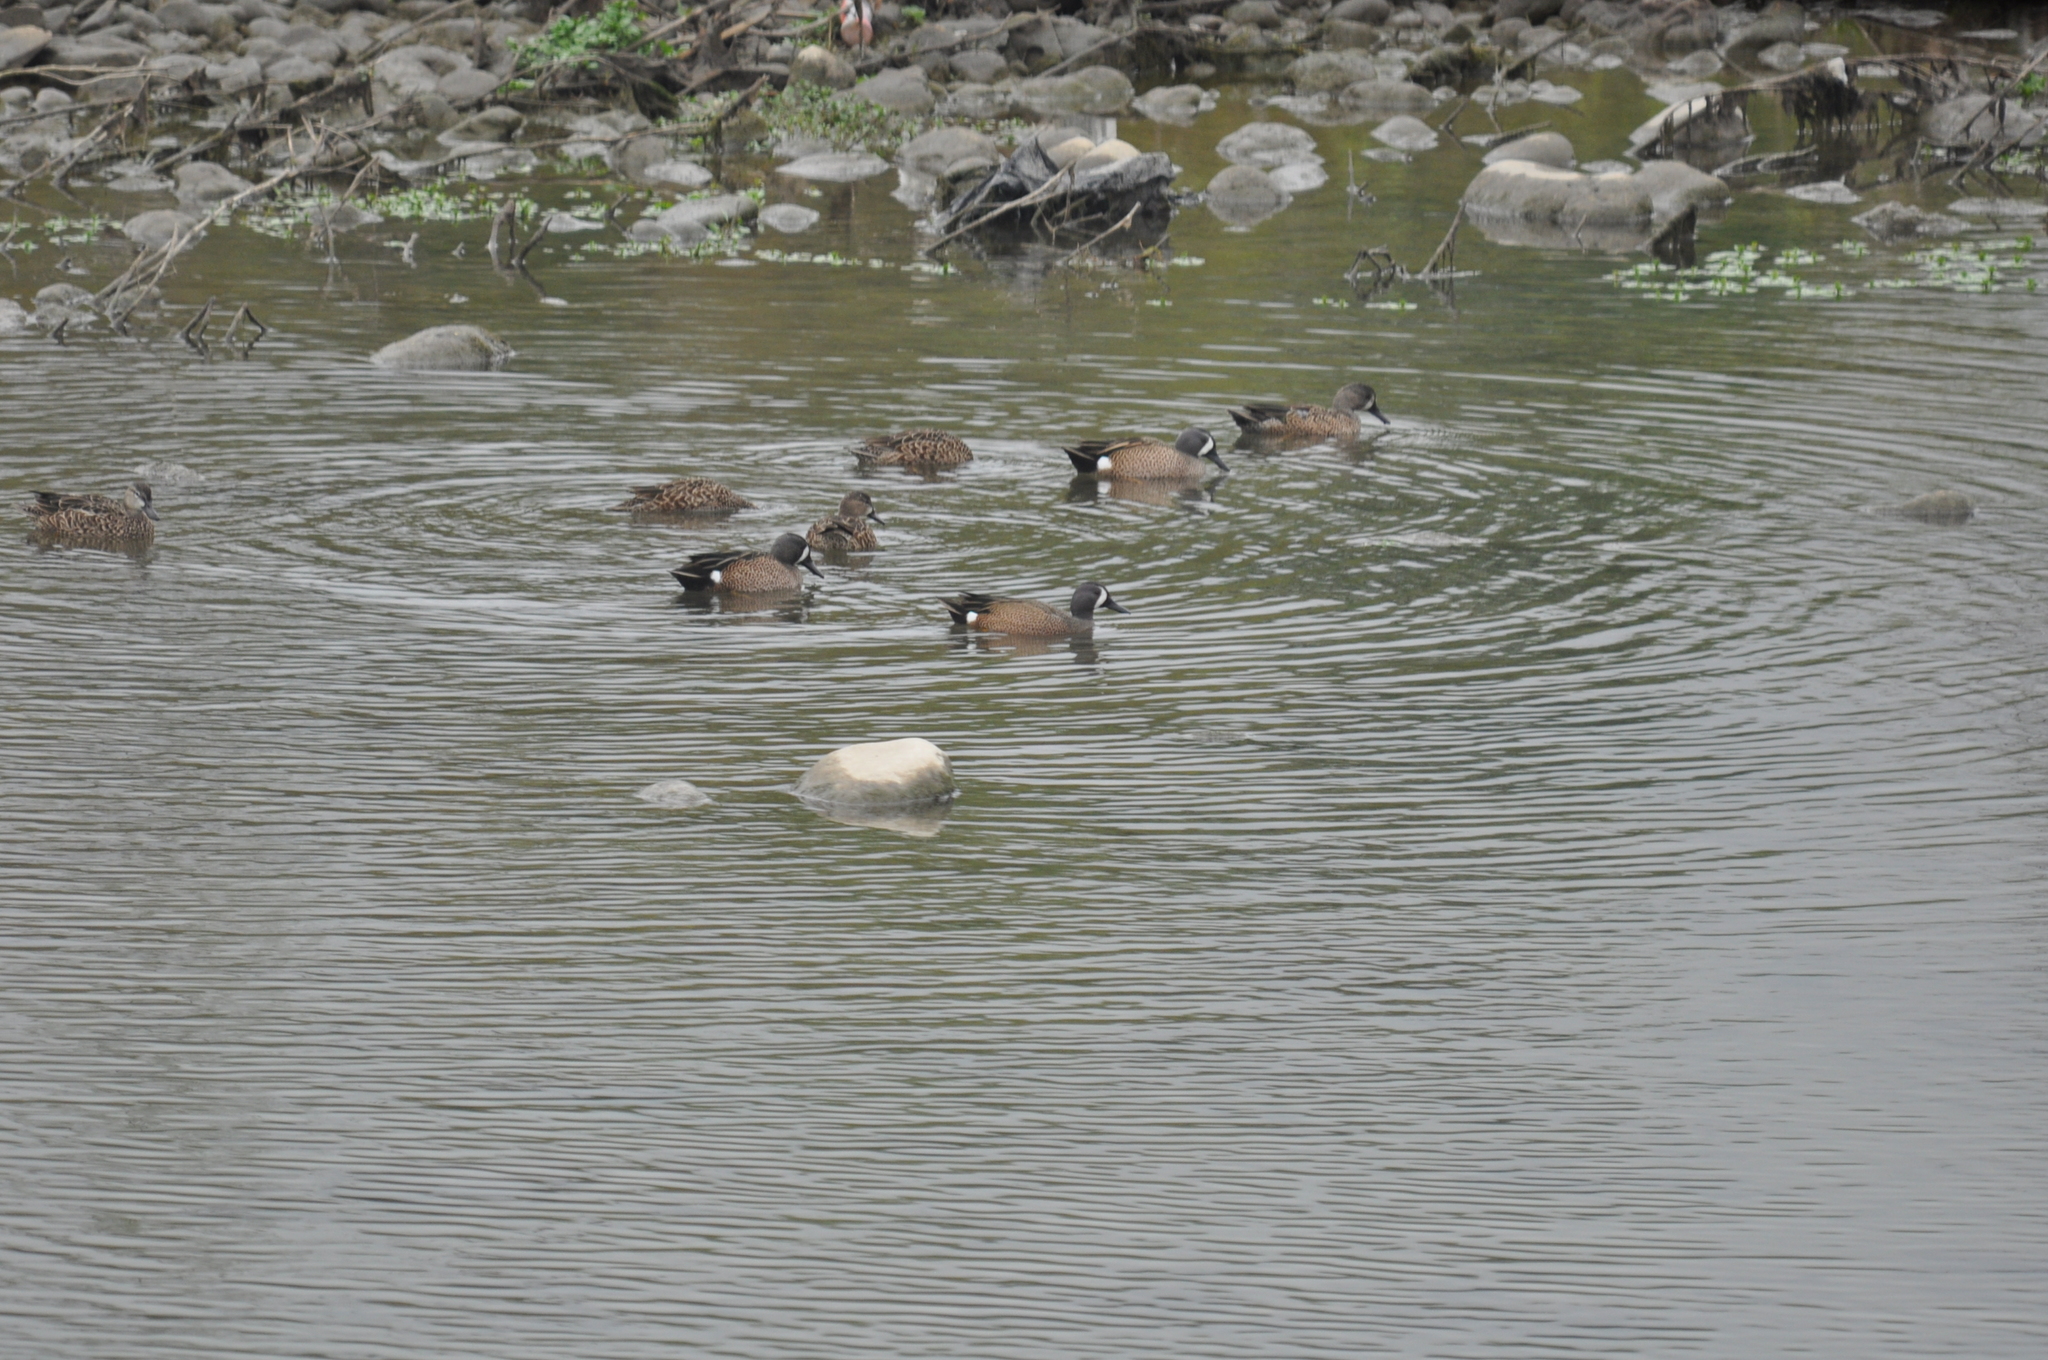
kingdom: Animalia
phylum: Chordata
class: Aves
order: Anseriformes
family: Anatidae
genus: Spatula
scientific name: Spatula discors
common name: Blue-winged teal
